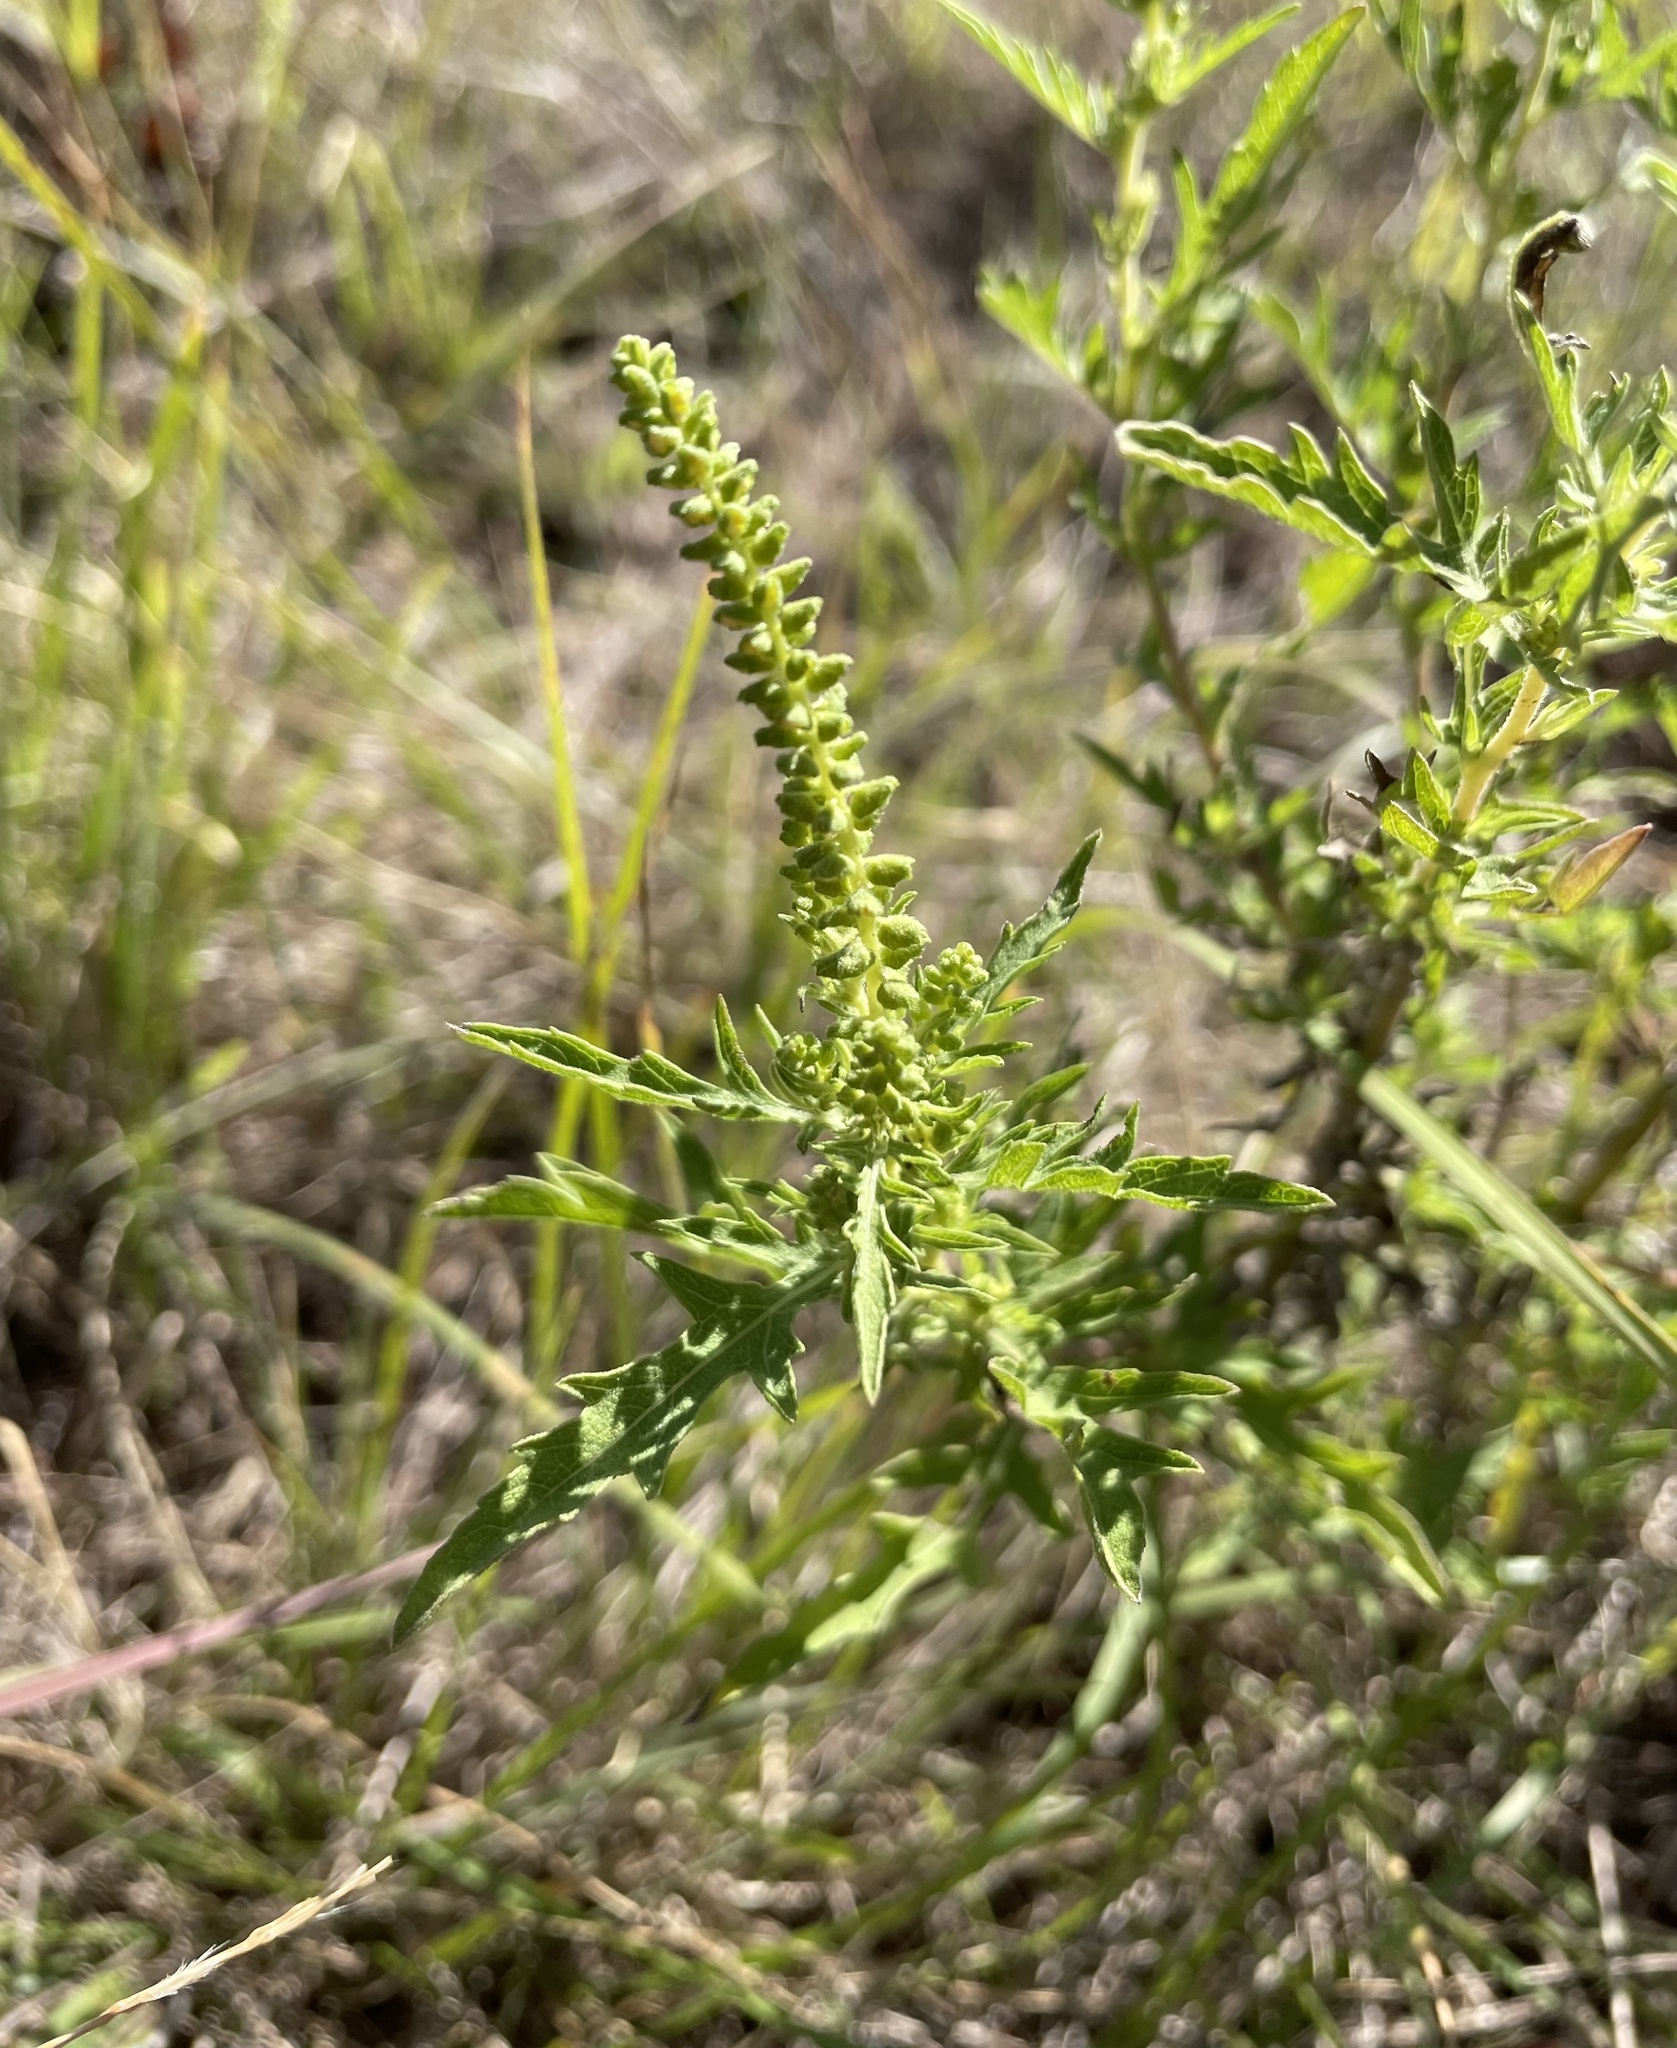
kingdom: Plantae
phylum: Tracheophyta
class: Magnoliopsida
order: Asterales
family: Asteraceae
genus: Ambrosia
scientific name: Ambrosia psilostachya
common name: Perennial ragweed
